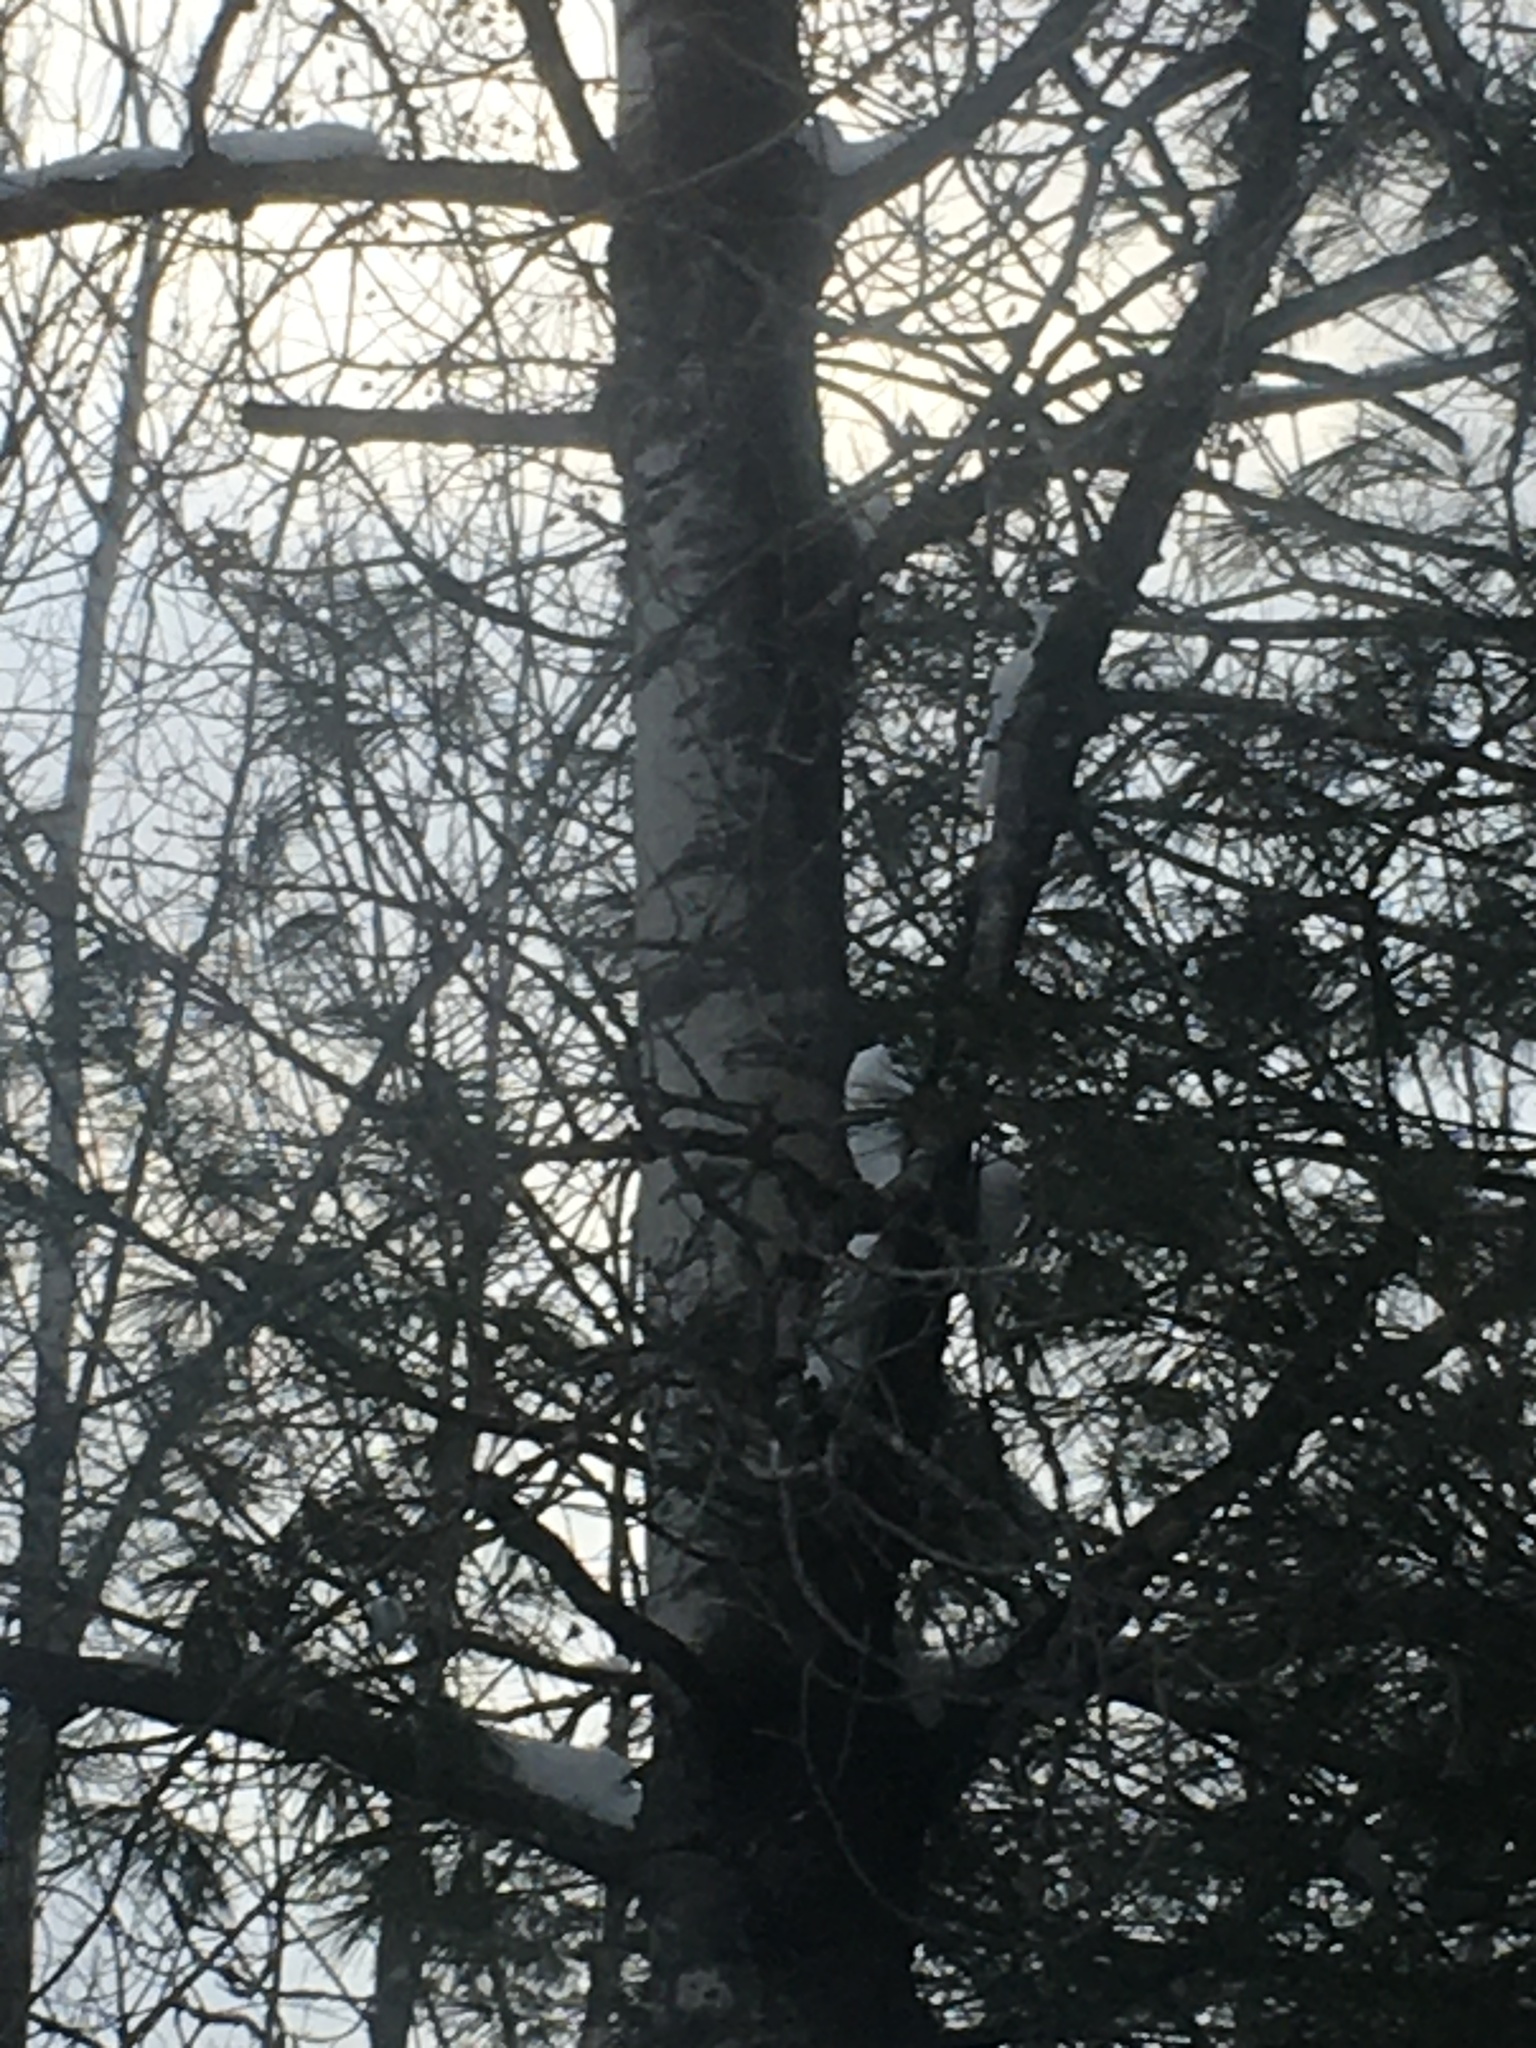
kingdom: Plantae
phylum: Tracheophyta
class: Magnoliopsida
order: Malpighiales
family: Salicaceae
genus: Populus
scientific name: Populus tremuloides
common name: Quaking aspen
